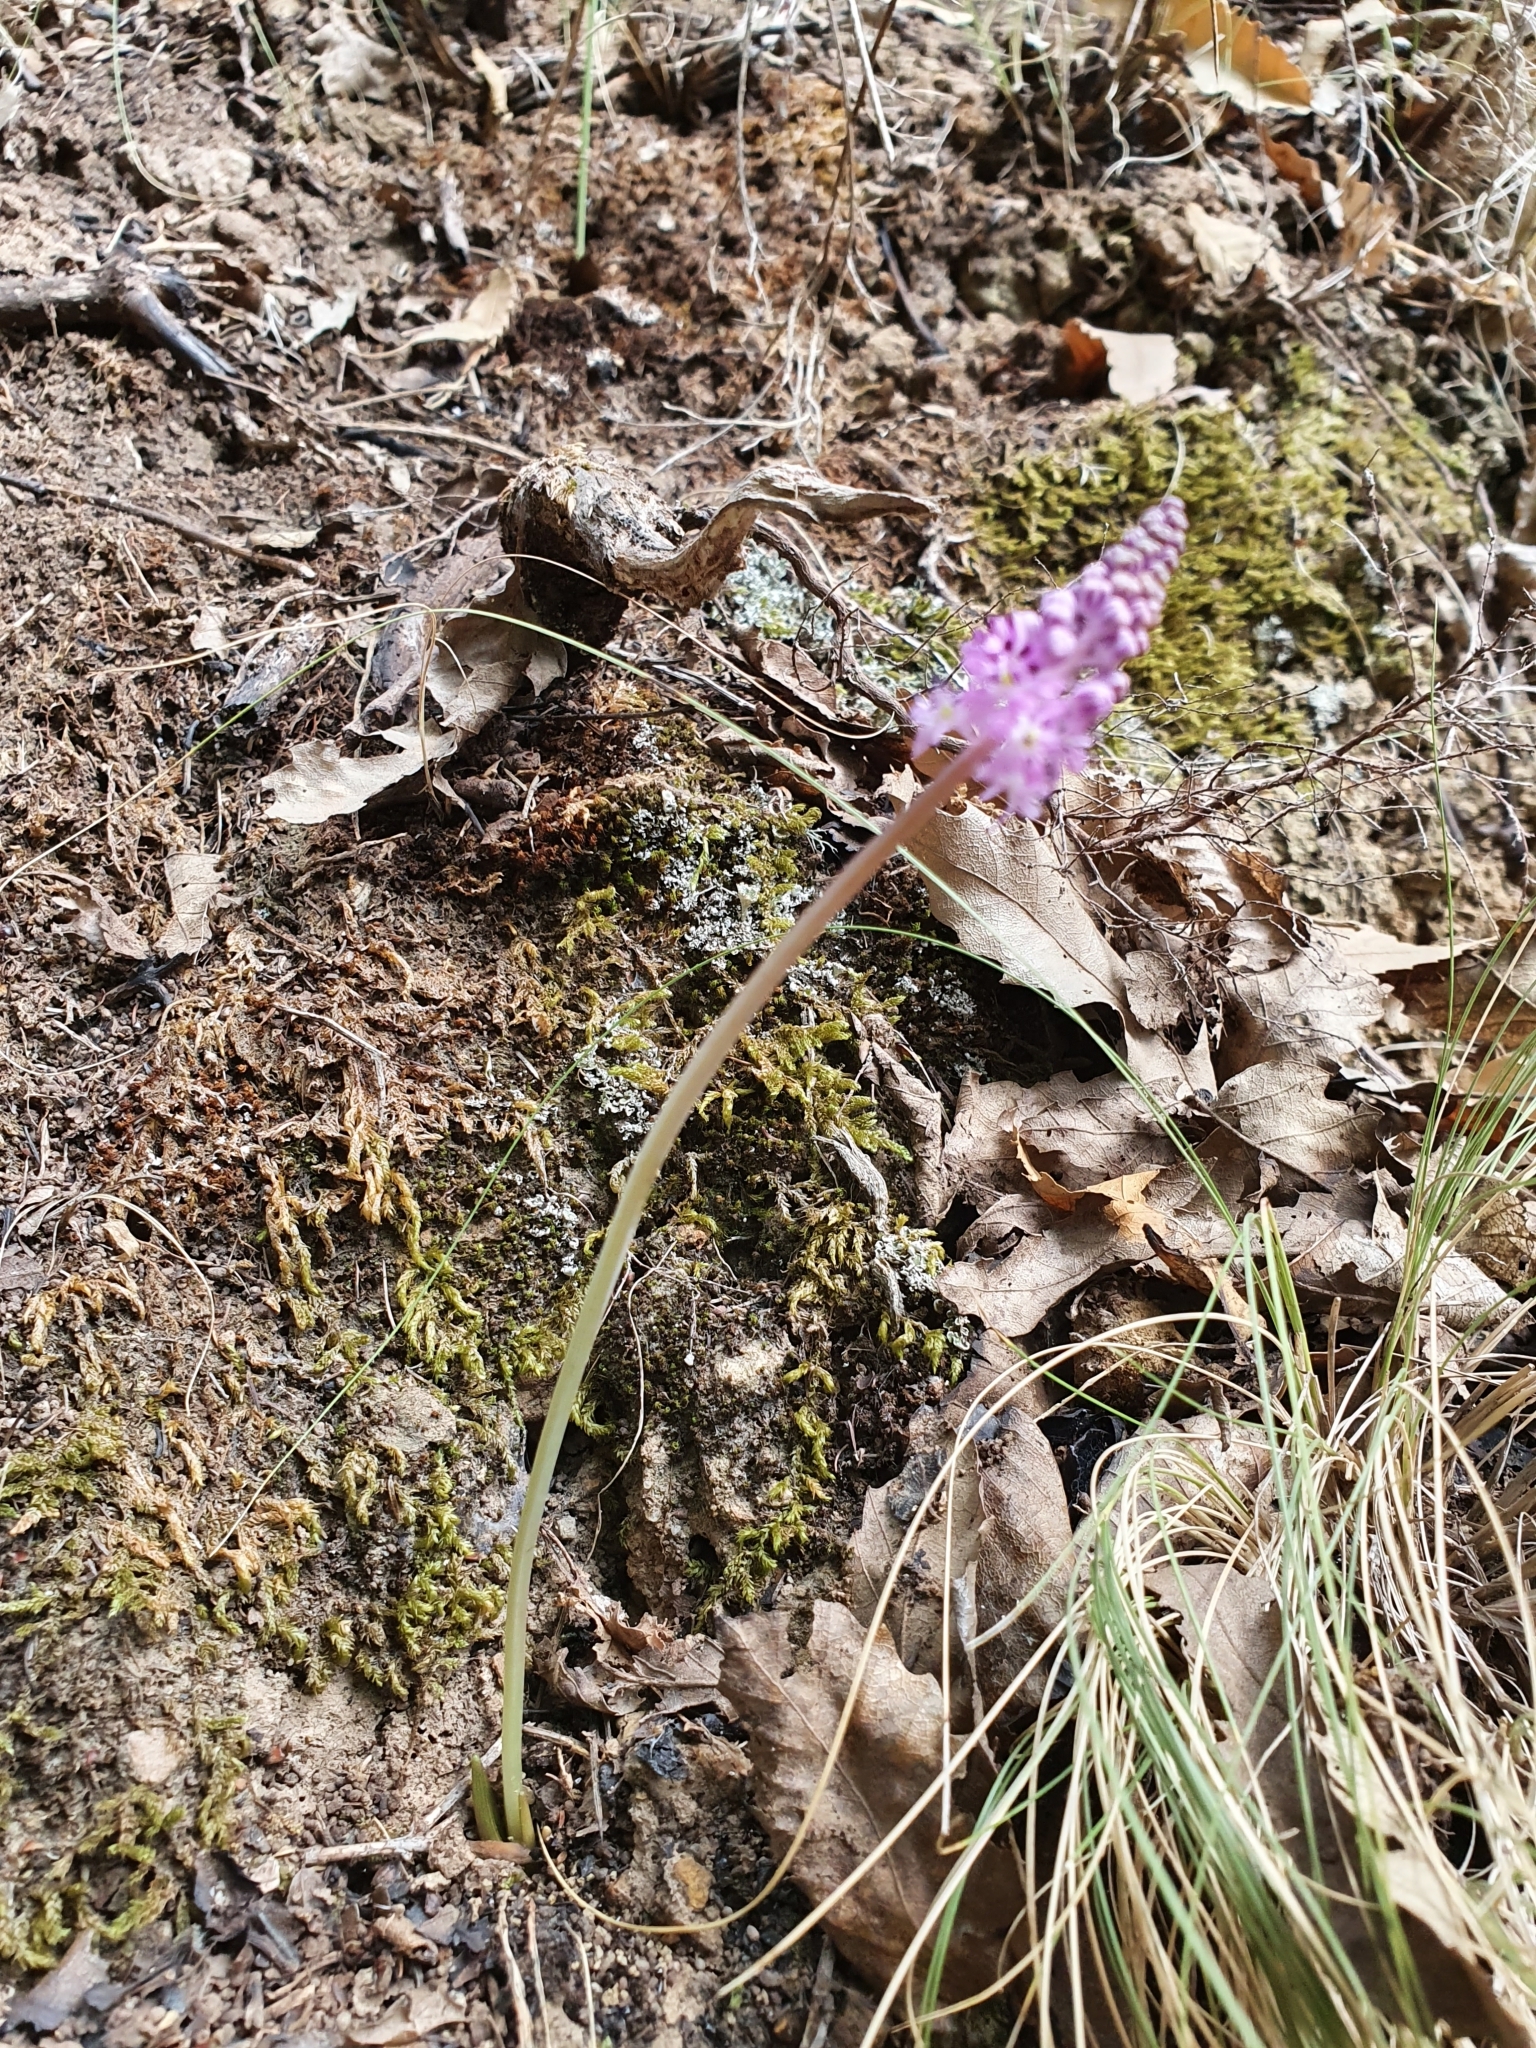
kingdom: Plantae
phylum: Tracheophyta
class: Liliopsida
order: Asparagales
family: Asparagaceae
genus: Barnardia
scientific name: Barnardia numidica
